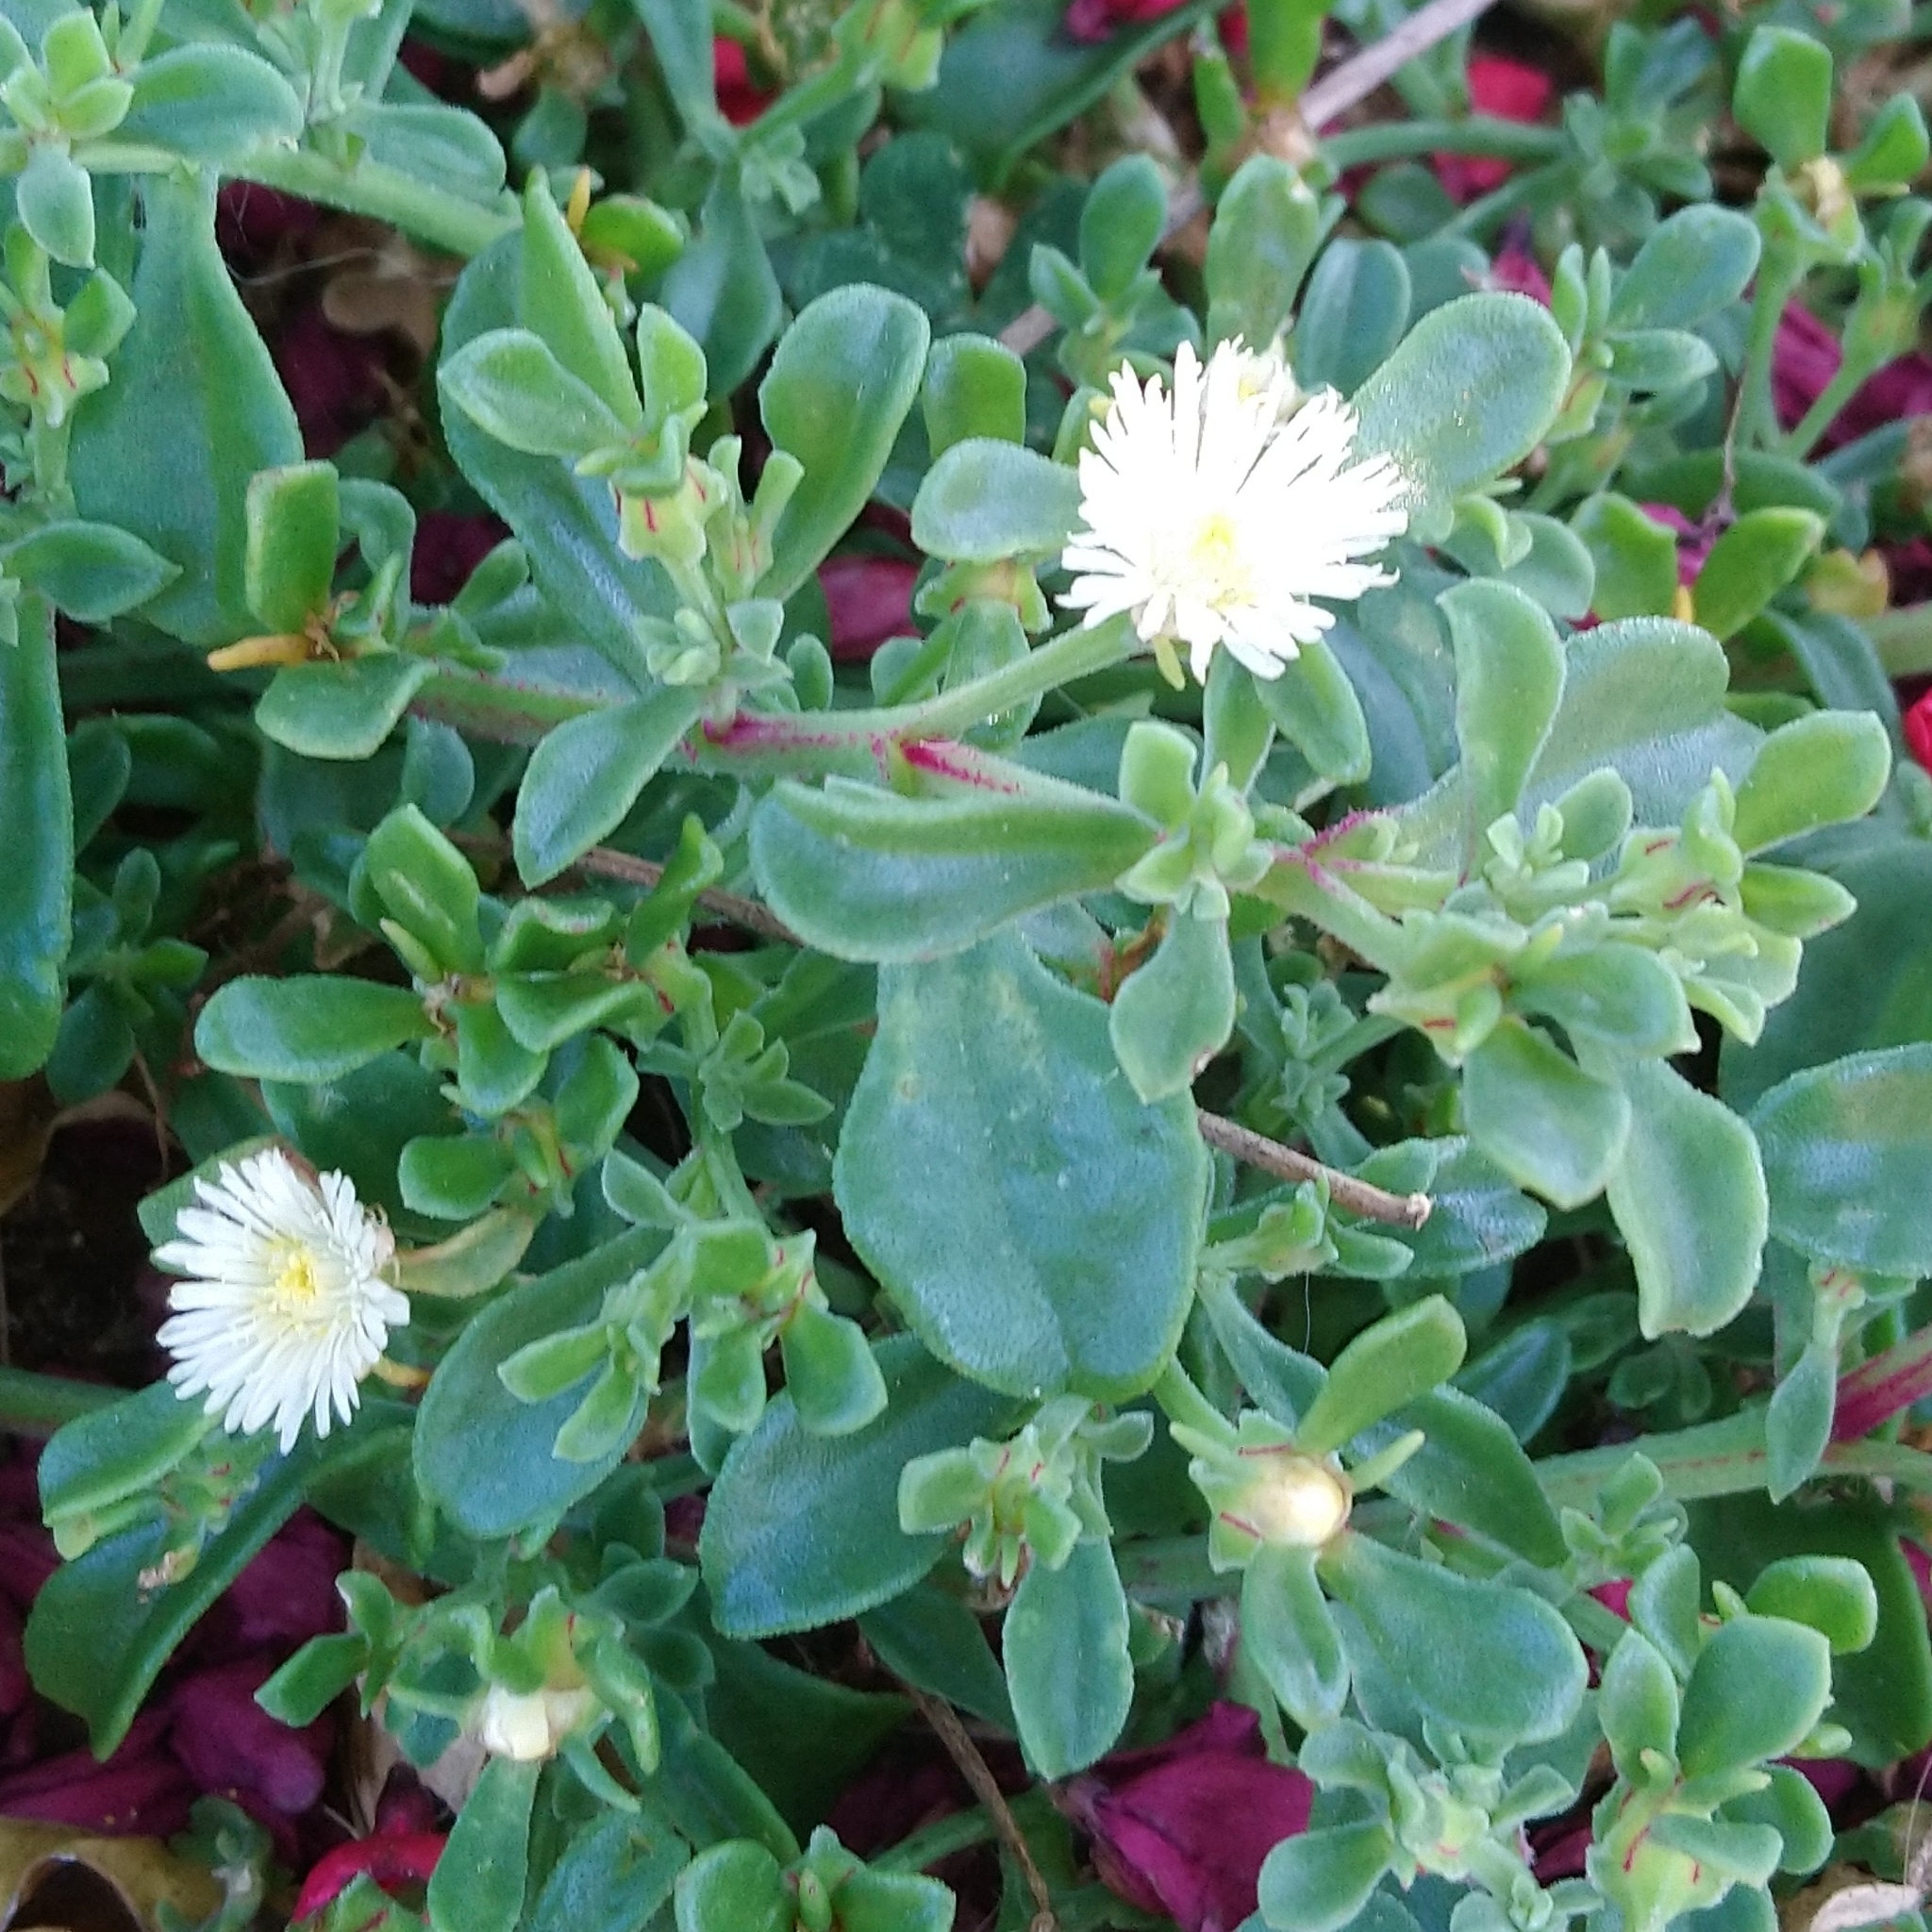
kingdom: Plantae
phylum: Tracheophyta
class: Magnoliopsida
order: Caryophyllales
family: Aizoaceae
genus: Mesembryanthemum
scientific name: Mesembryanthemum aitonis
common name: Angled iceplant
